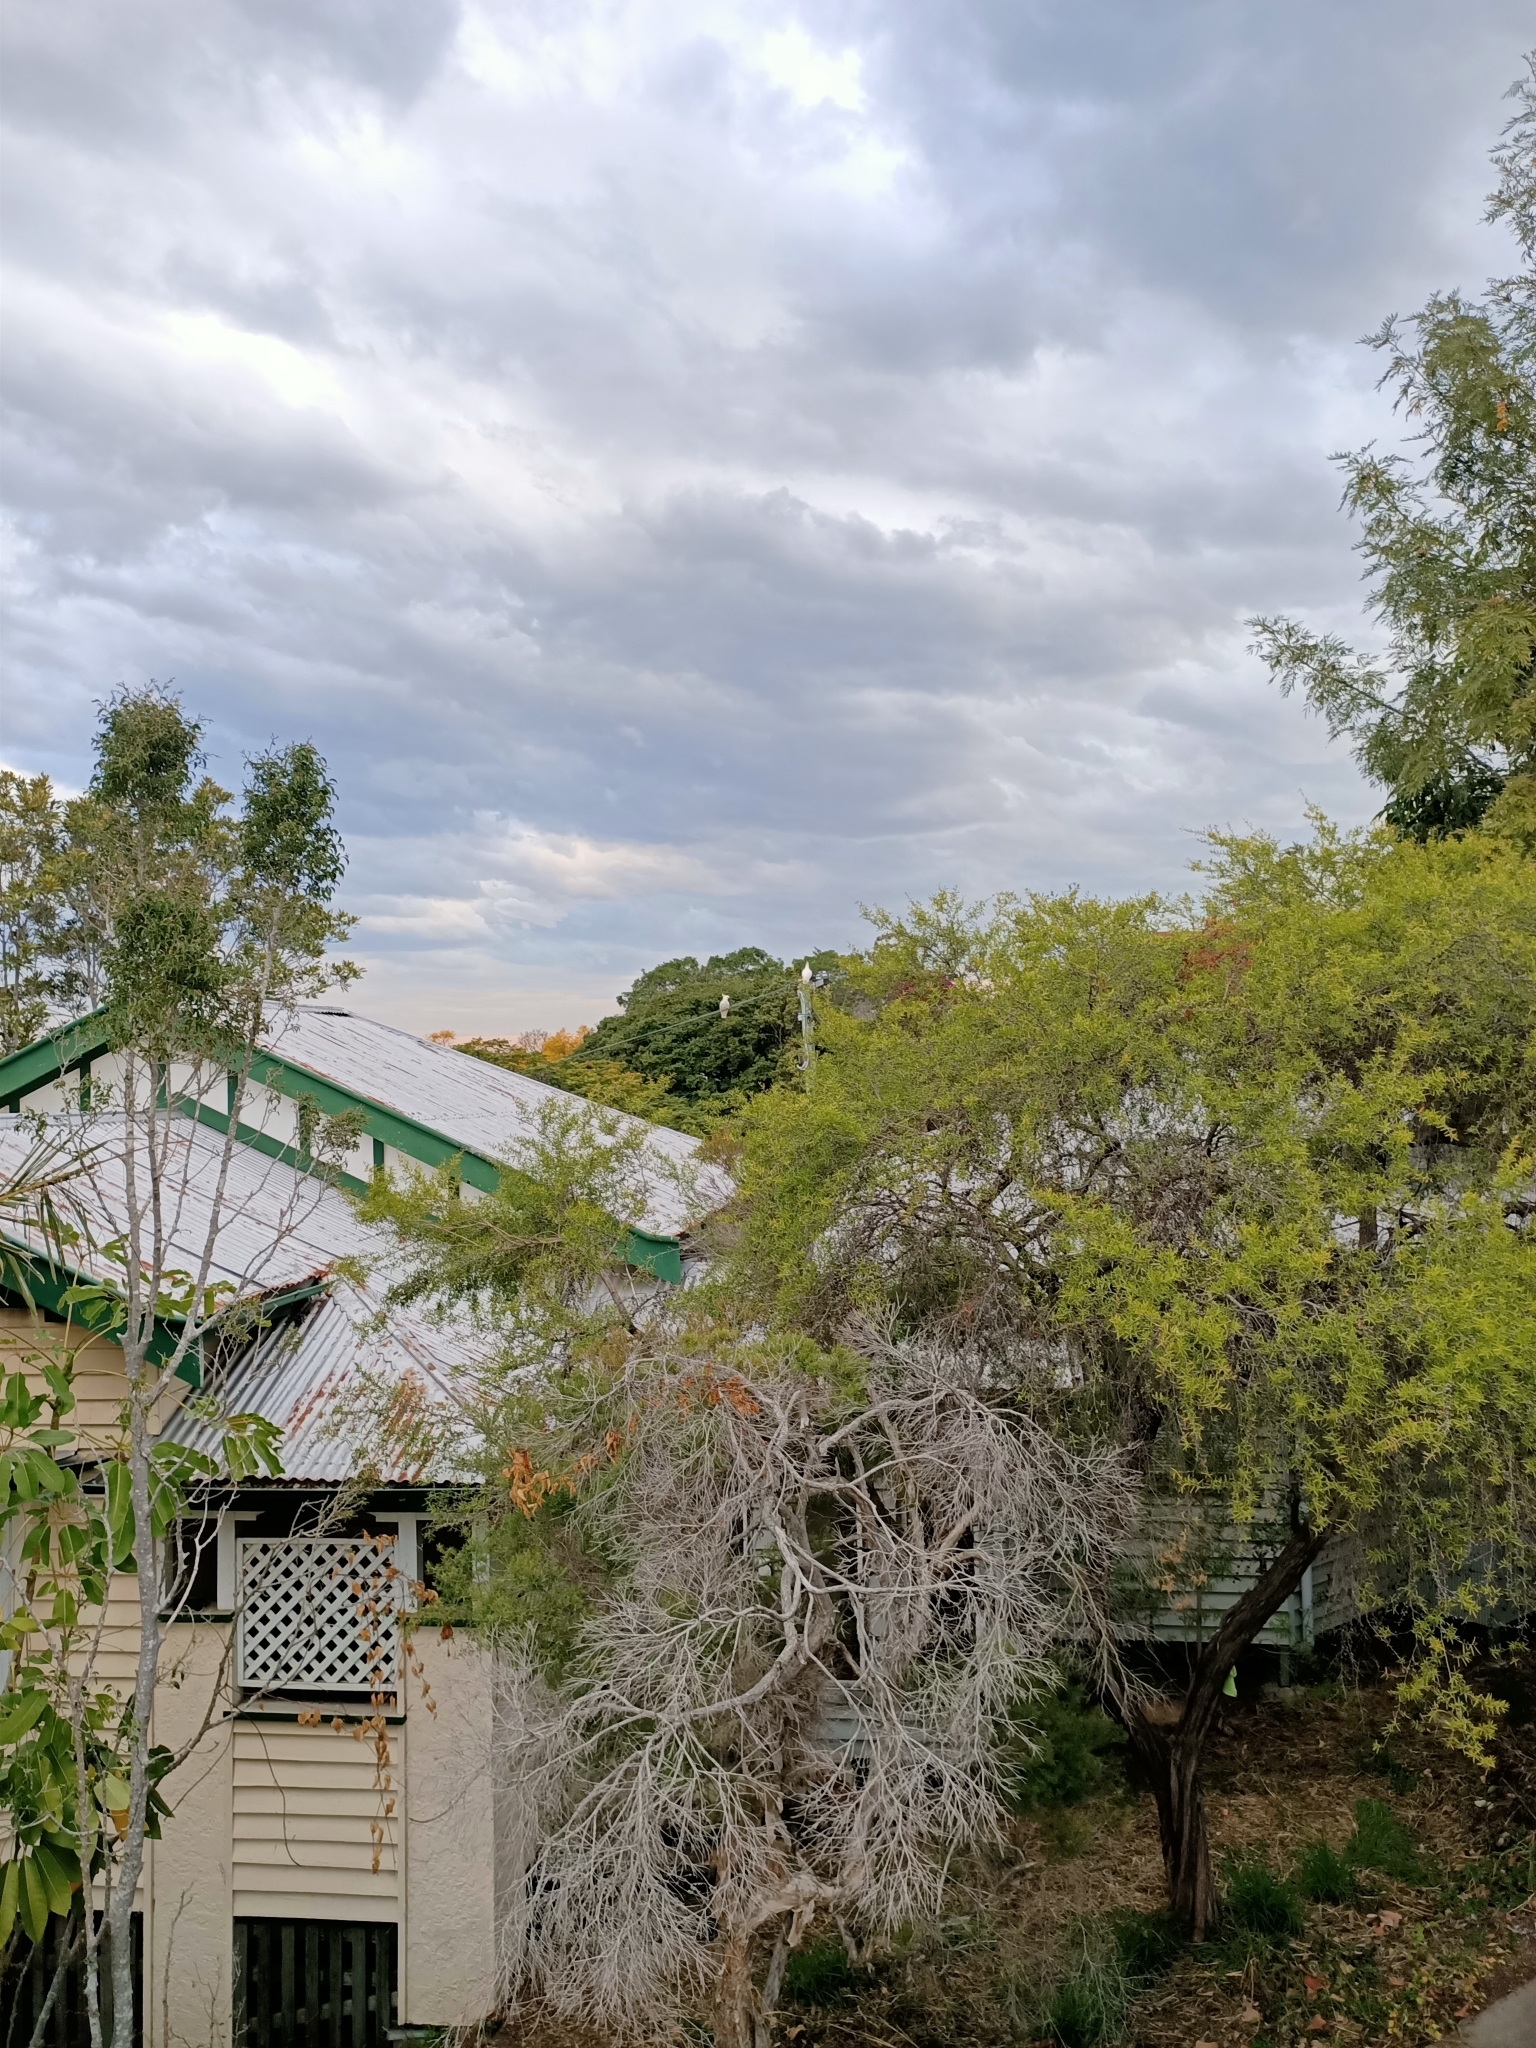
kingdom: Animalia
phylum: Chordata
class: Aves
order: Psittaciformes
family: Psittacidae
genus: Cacatua
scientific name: Cacatua galerita
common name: Sulphur-crested cockatoo
